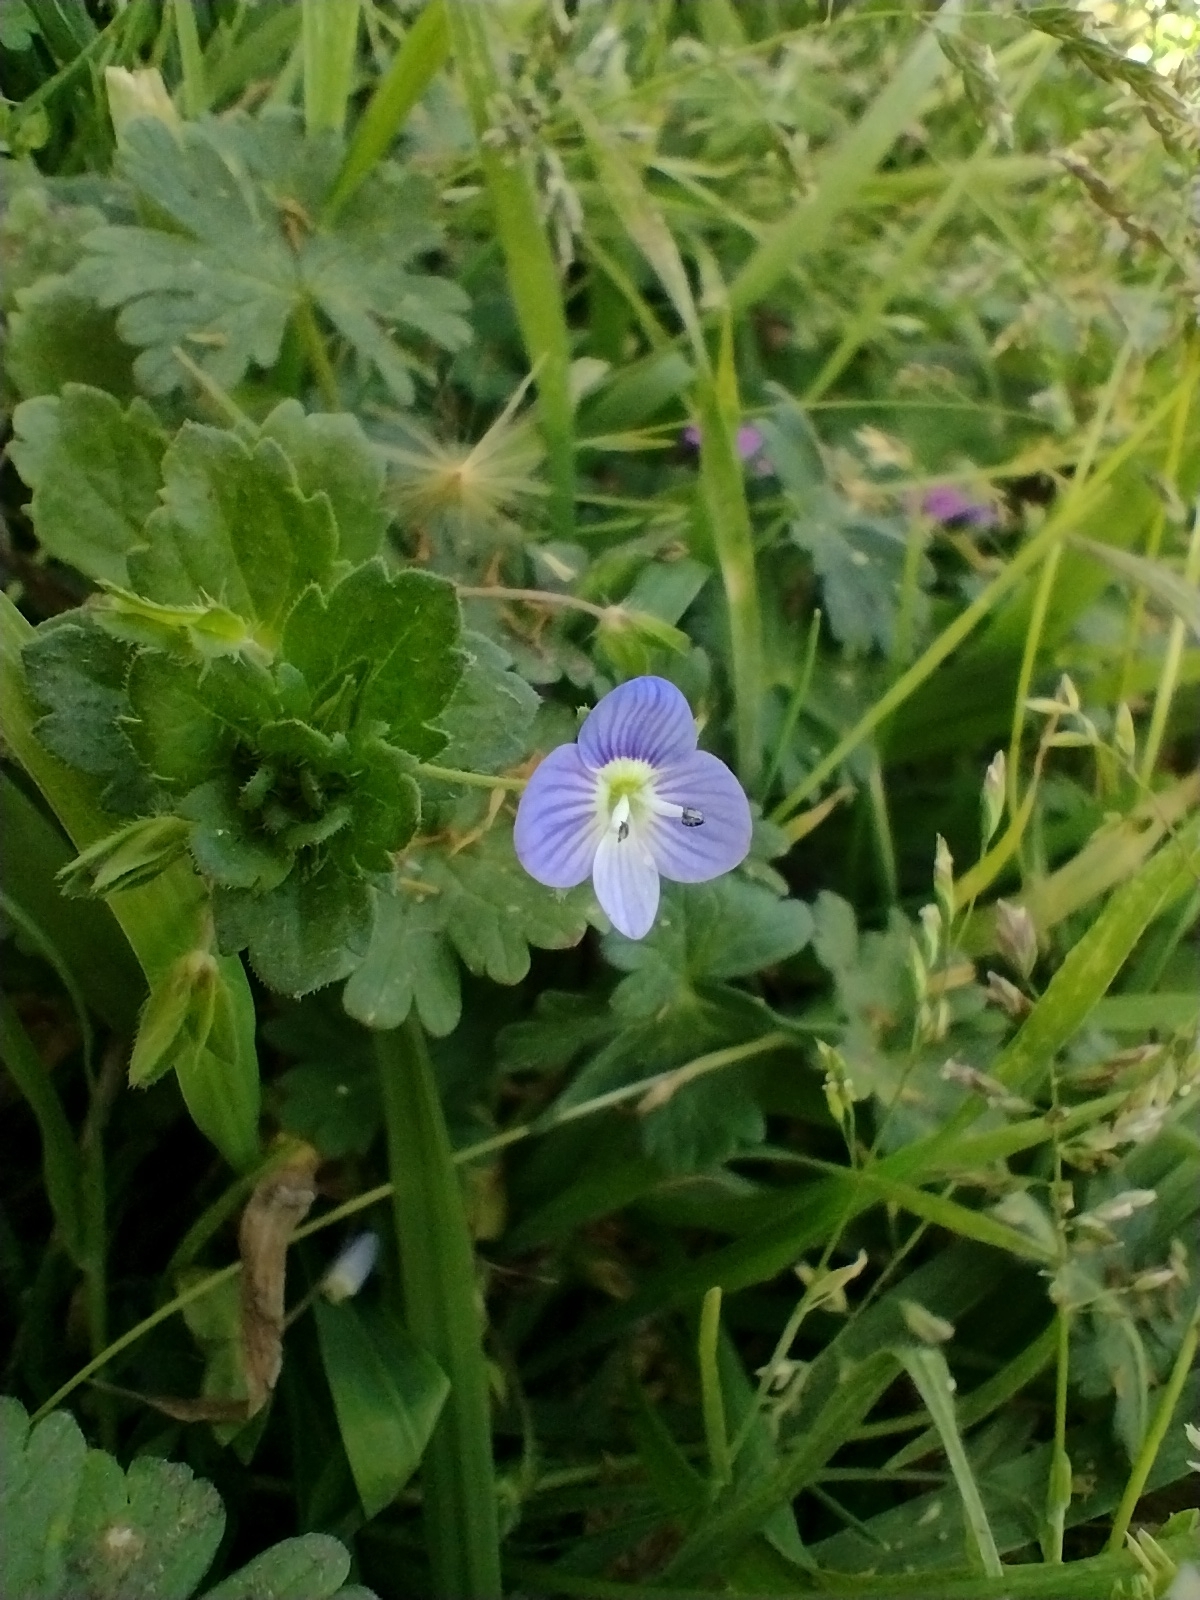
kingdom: Plantae
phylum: Tracheophyta
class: Magnoliopsida
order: Lamiales
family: Plantaginaceae
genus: Veronica
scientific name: Veronica persica
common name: Common field-speedwell
